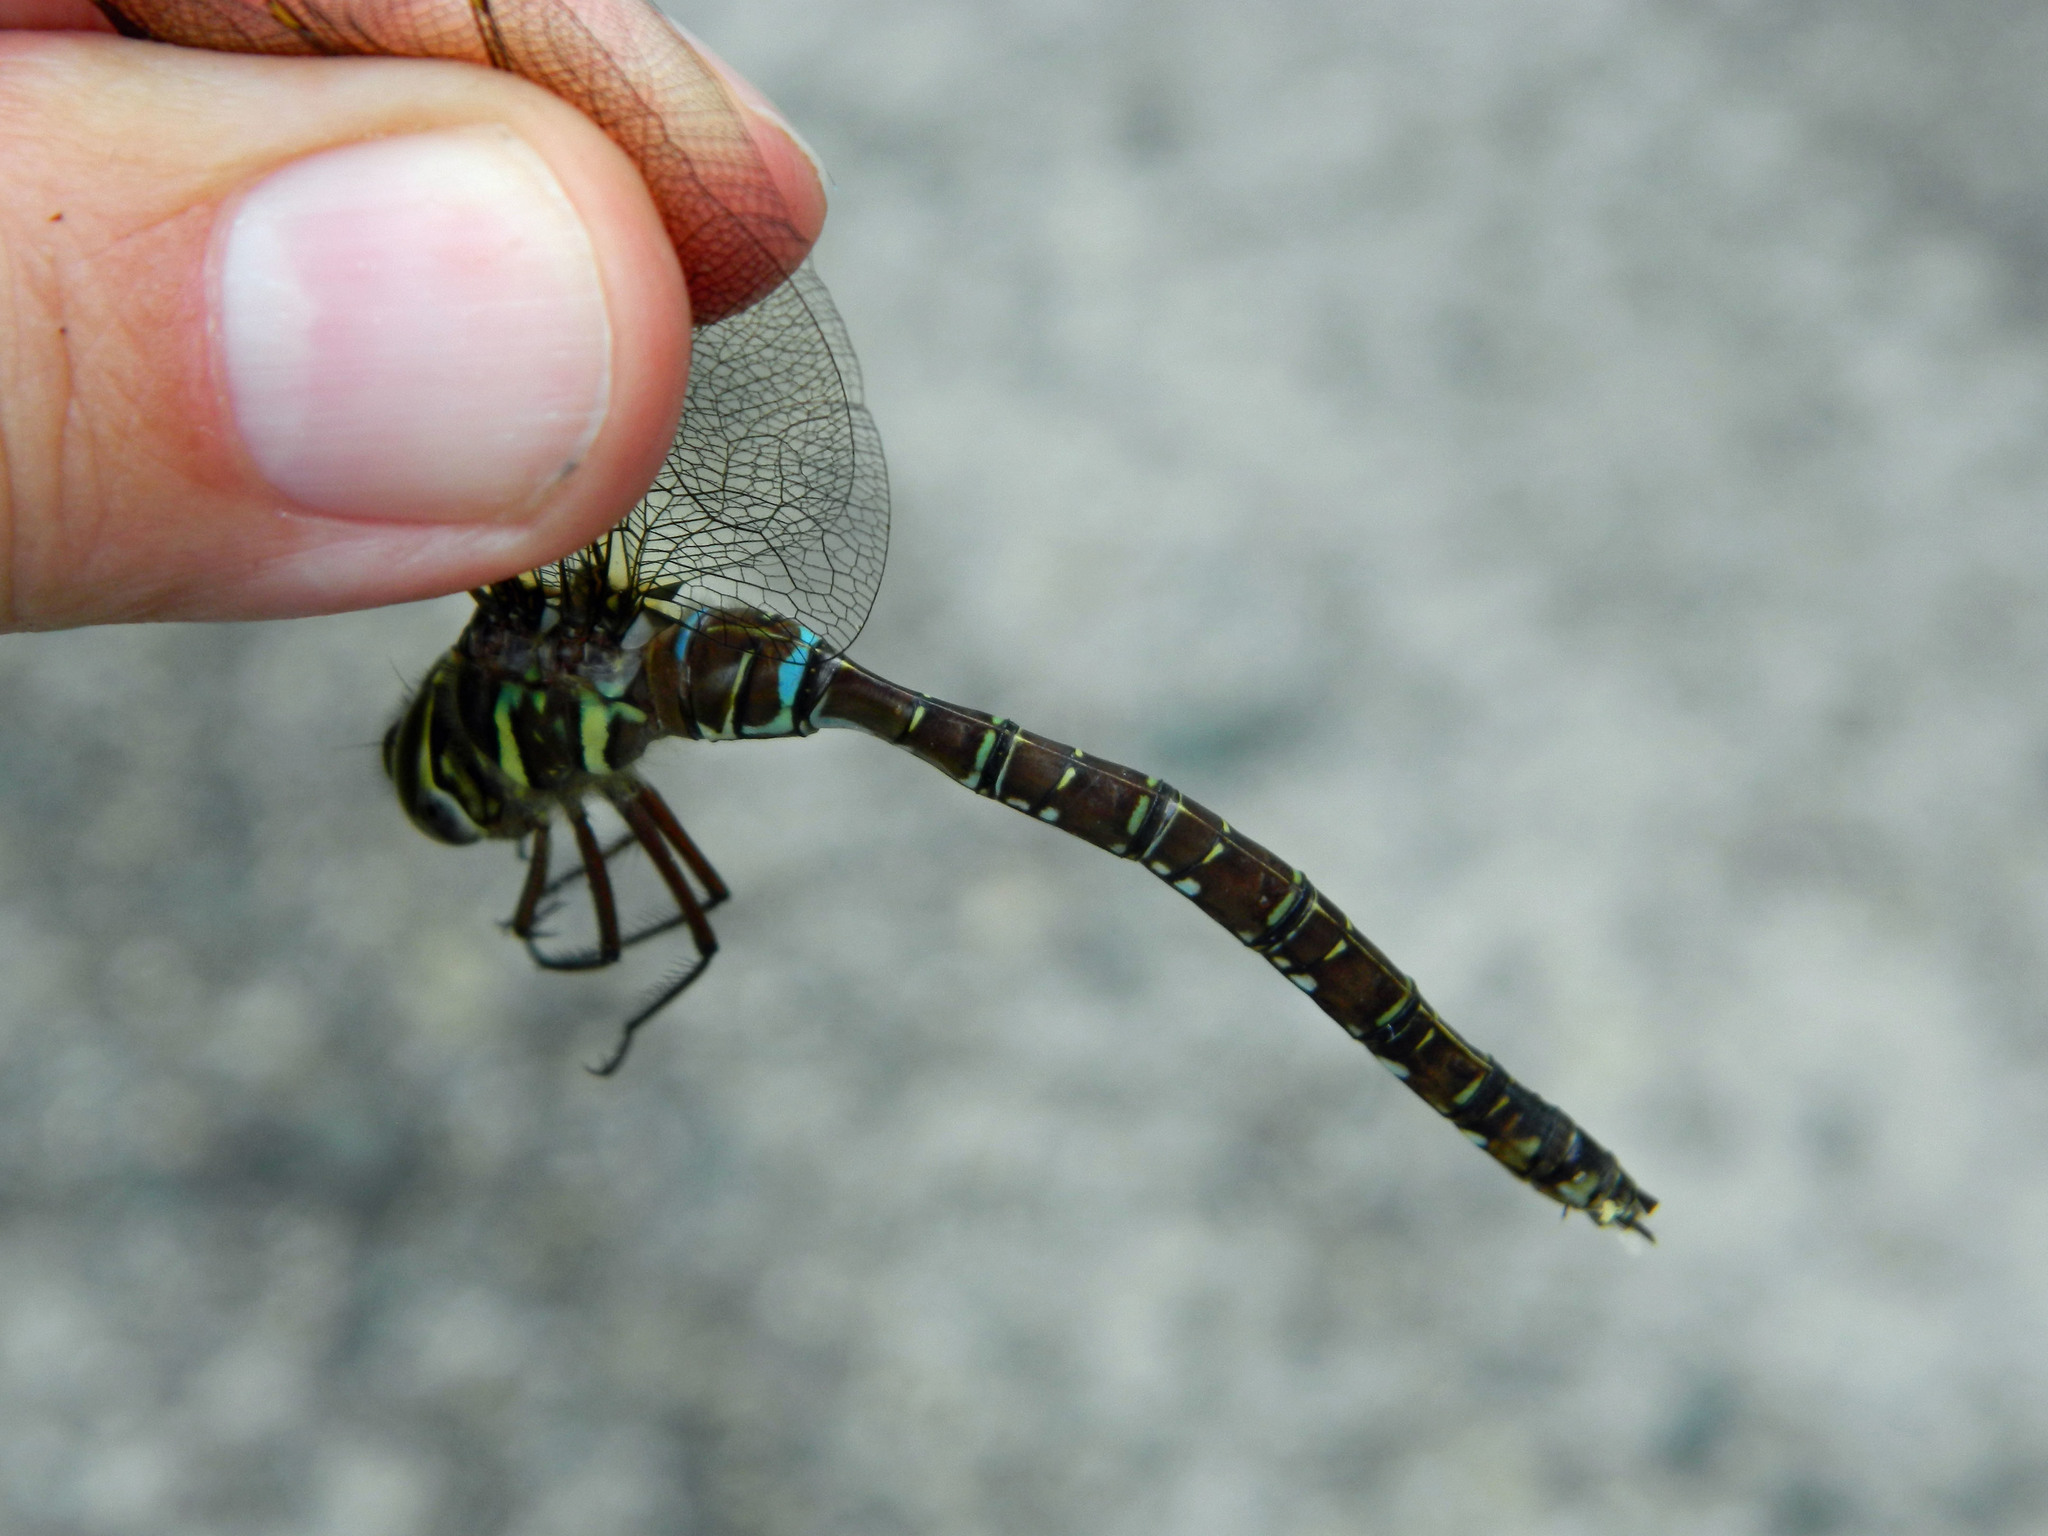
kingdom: Animalia
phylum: Arthropoda
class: Insecta
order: Odonata
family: Aeshnidae
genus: Aeshna
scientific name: Aeshna umbrosa
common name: Shadow darner
